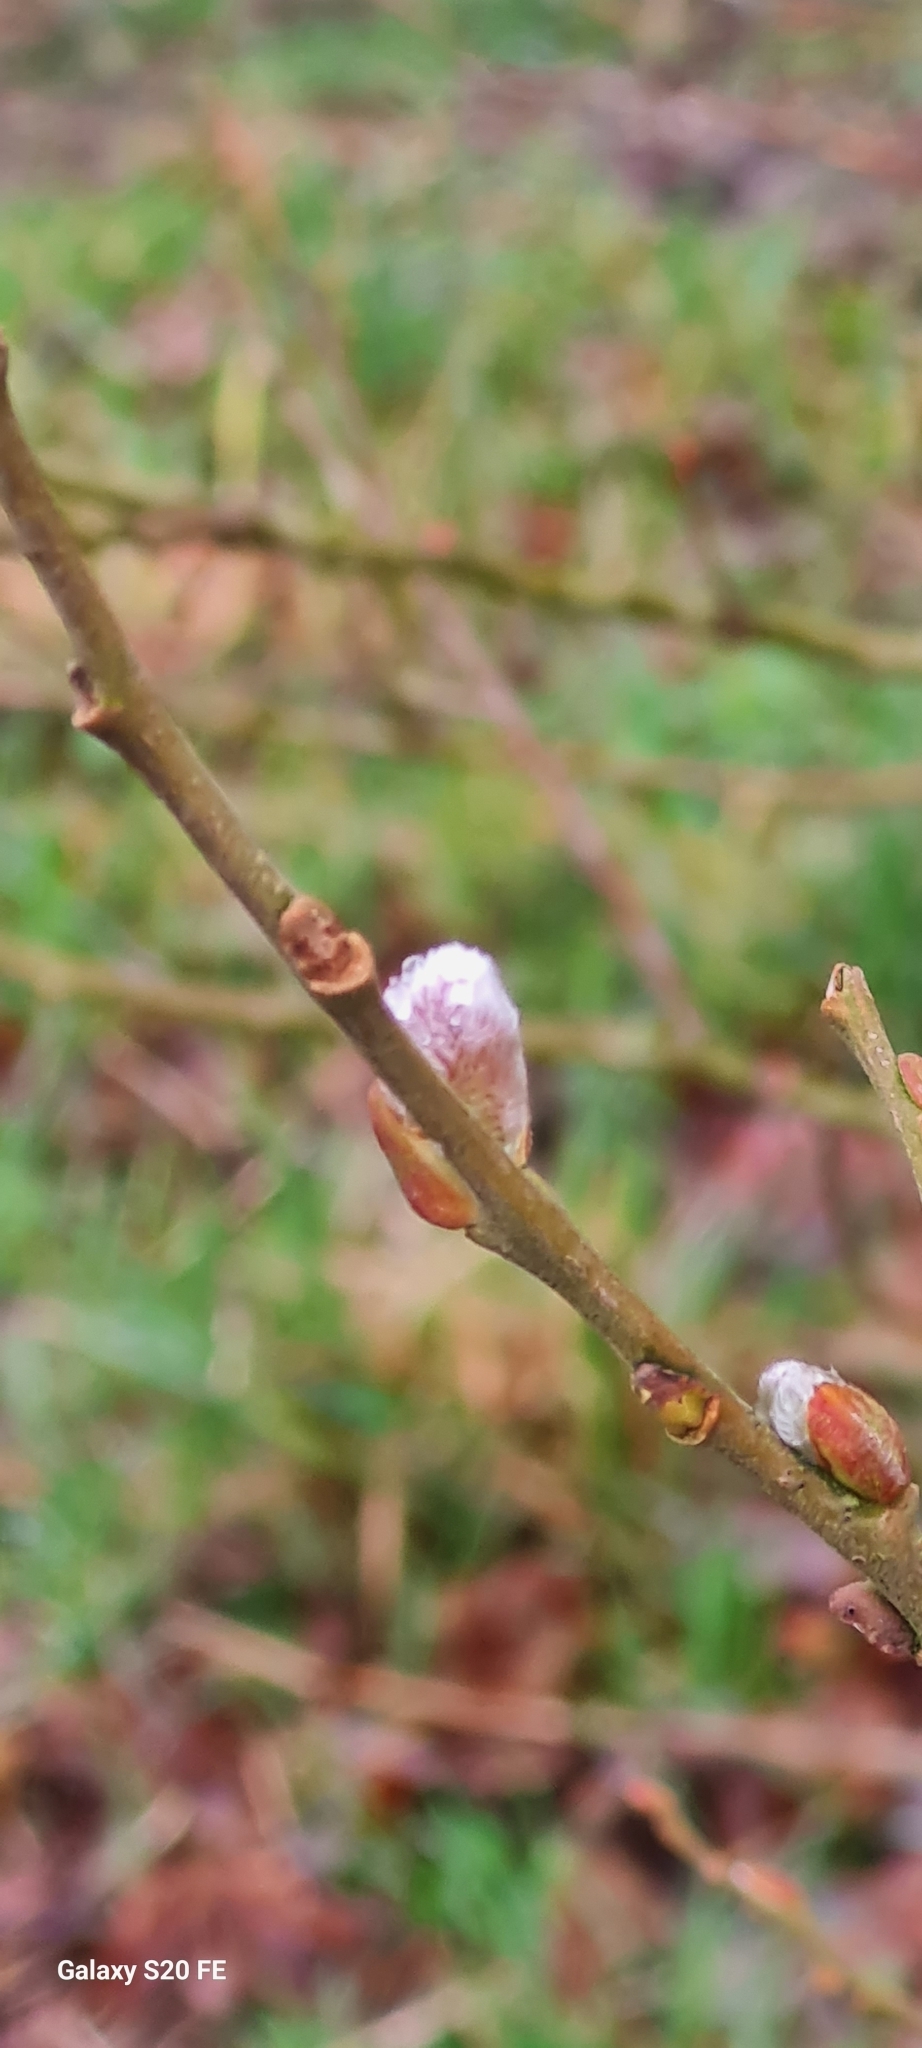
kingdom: Plantae
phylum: Tracheophyta
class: Magnoliopsida
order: Malpighiales
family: Salicaceae
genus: Salix
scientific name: Salix caprea
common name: Goat willow
